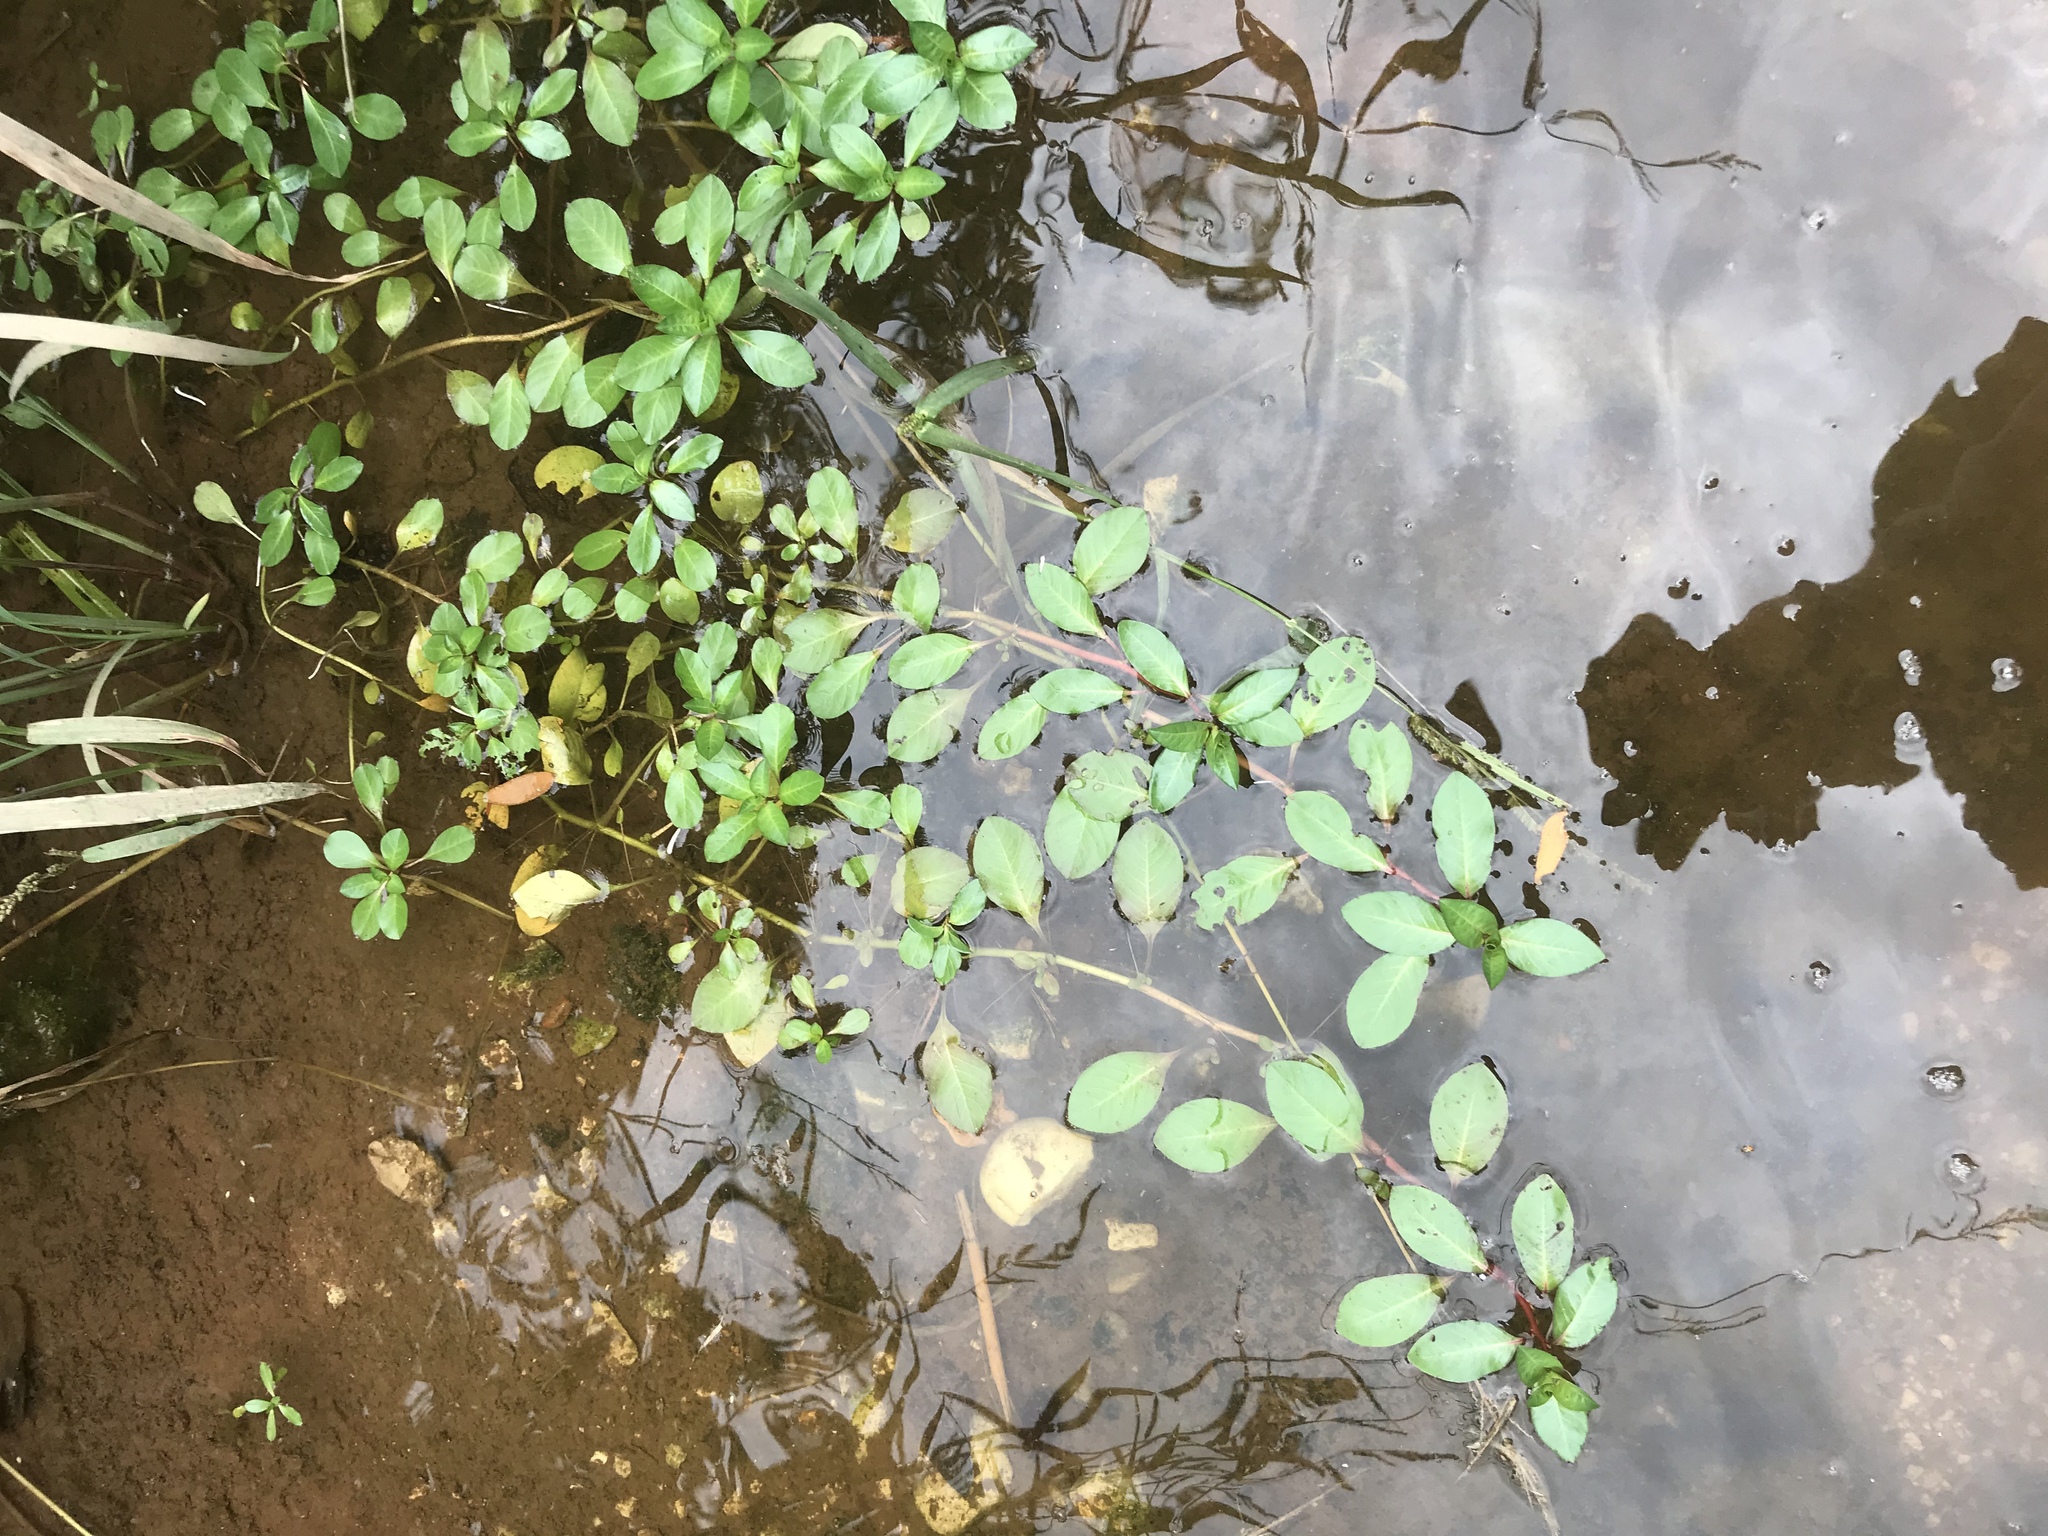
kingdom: Plantae
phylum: Tracheophyta
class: Magnoliopsida
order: Myrtales
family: Onagraceae
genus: Ludwigia
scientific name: Ludwigia peploides
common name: Floating primrose-willow
